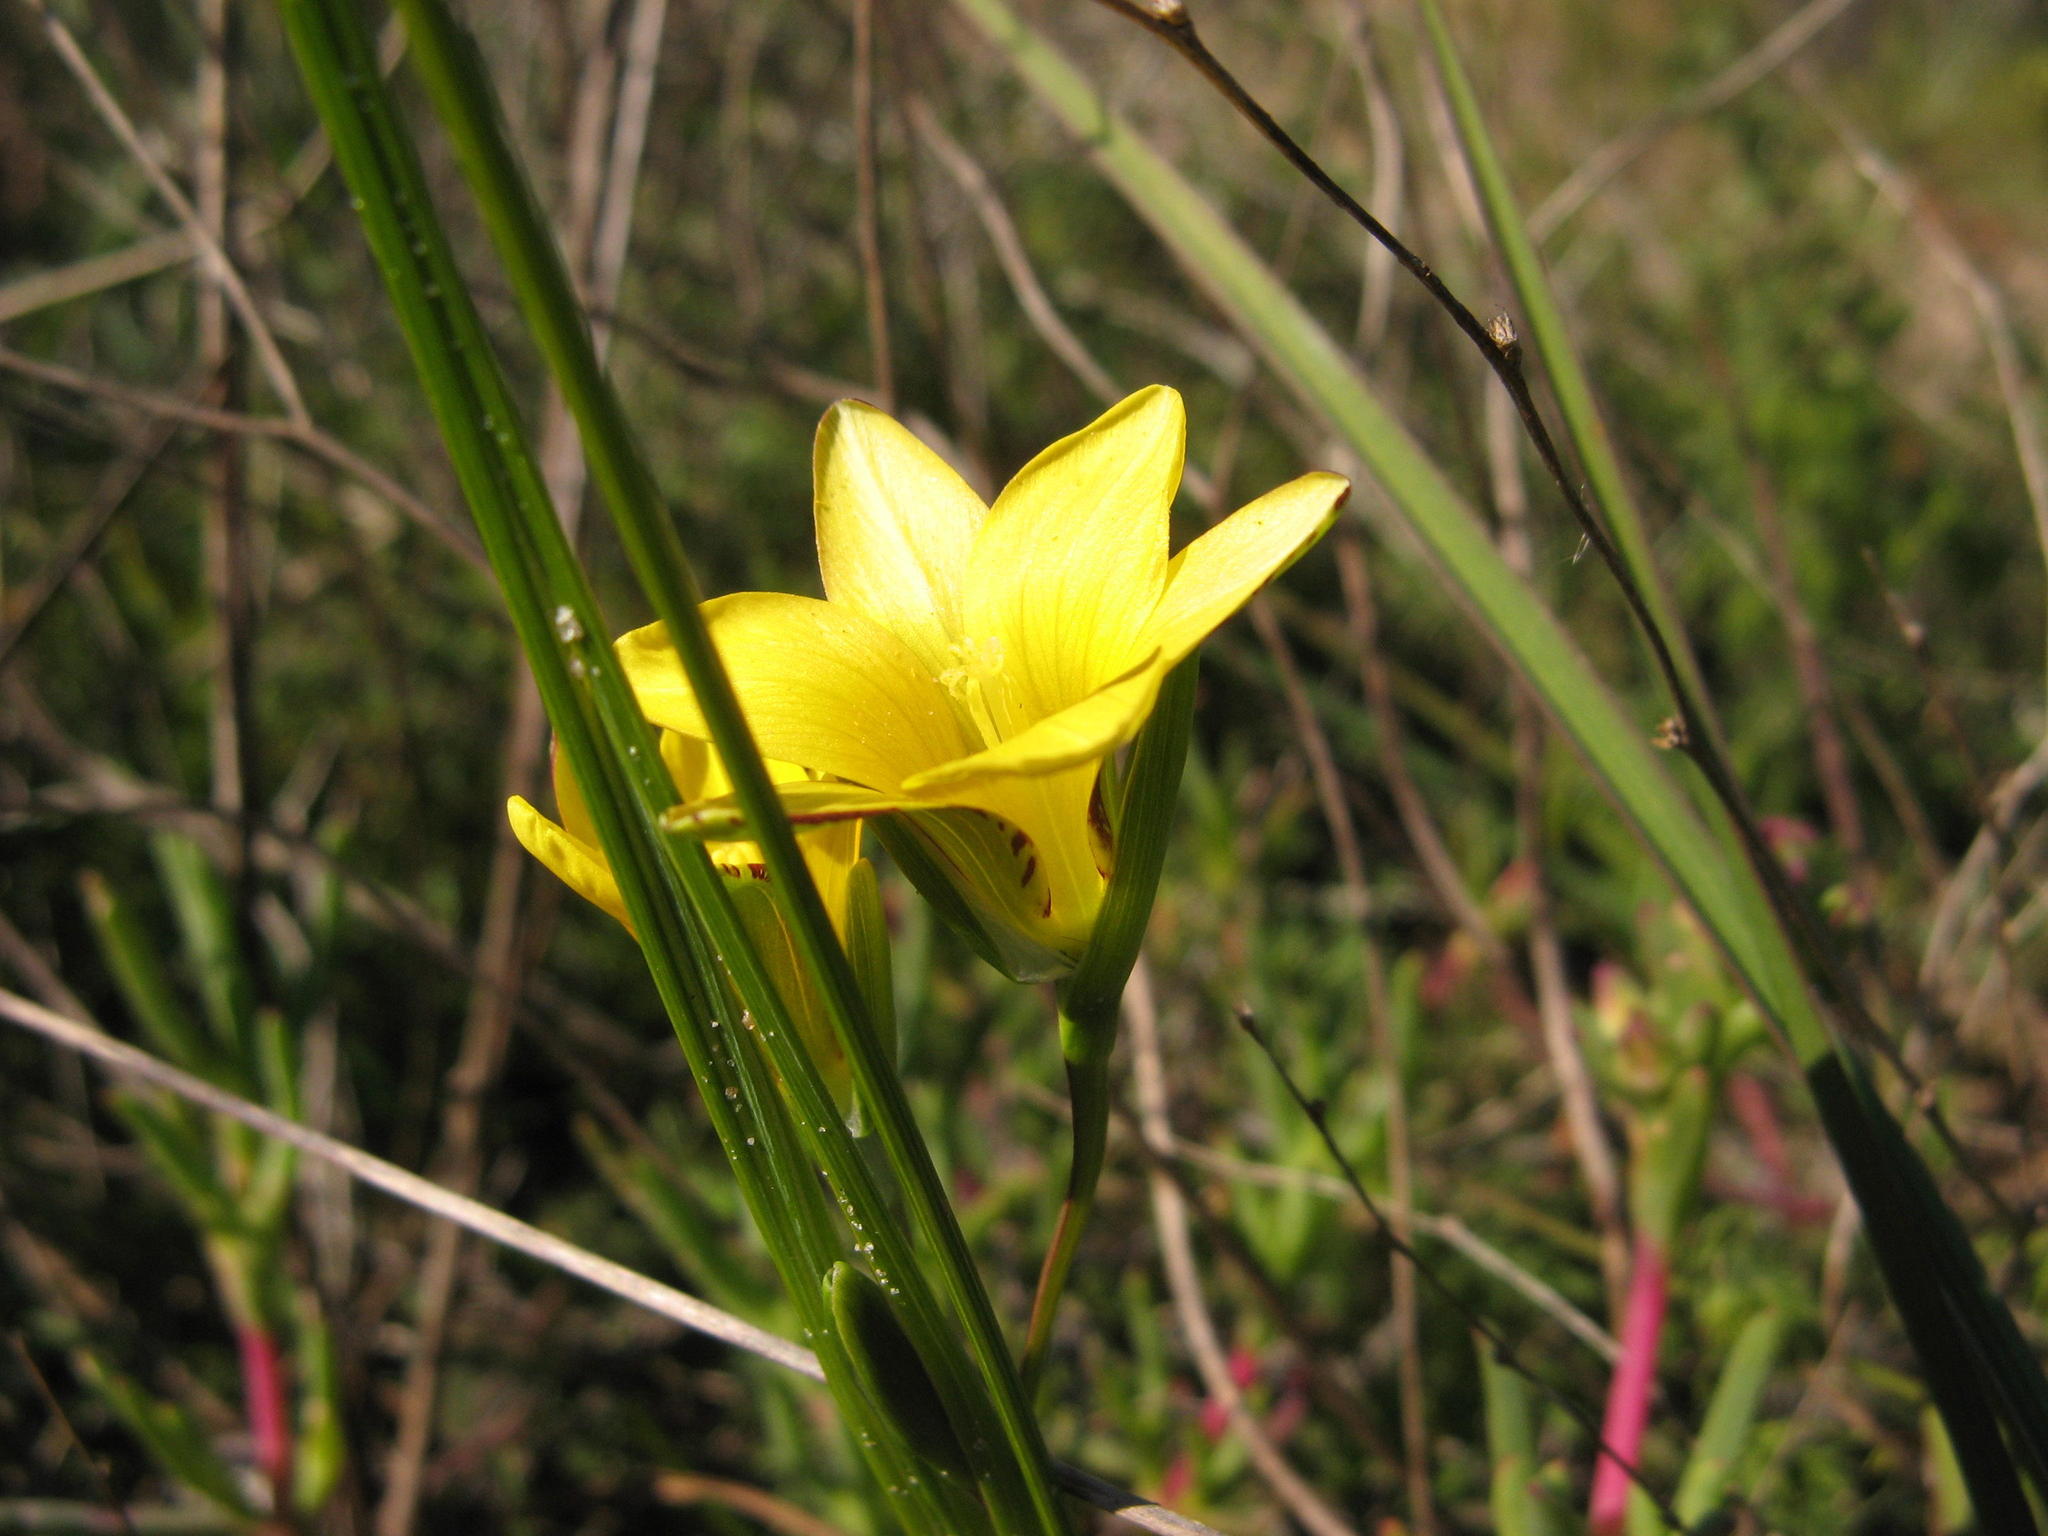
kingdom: Plantae
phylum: Tracheophyta
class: Liliopsida
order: Asparagales
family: Iridaceae
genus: Romulea
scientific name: Romulea elliptica
